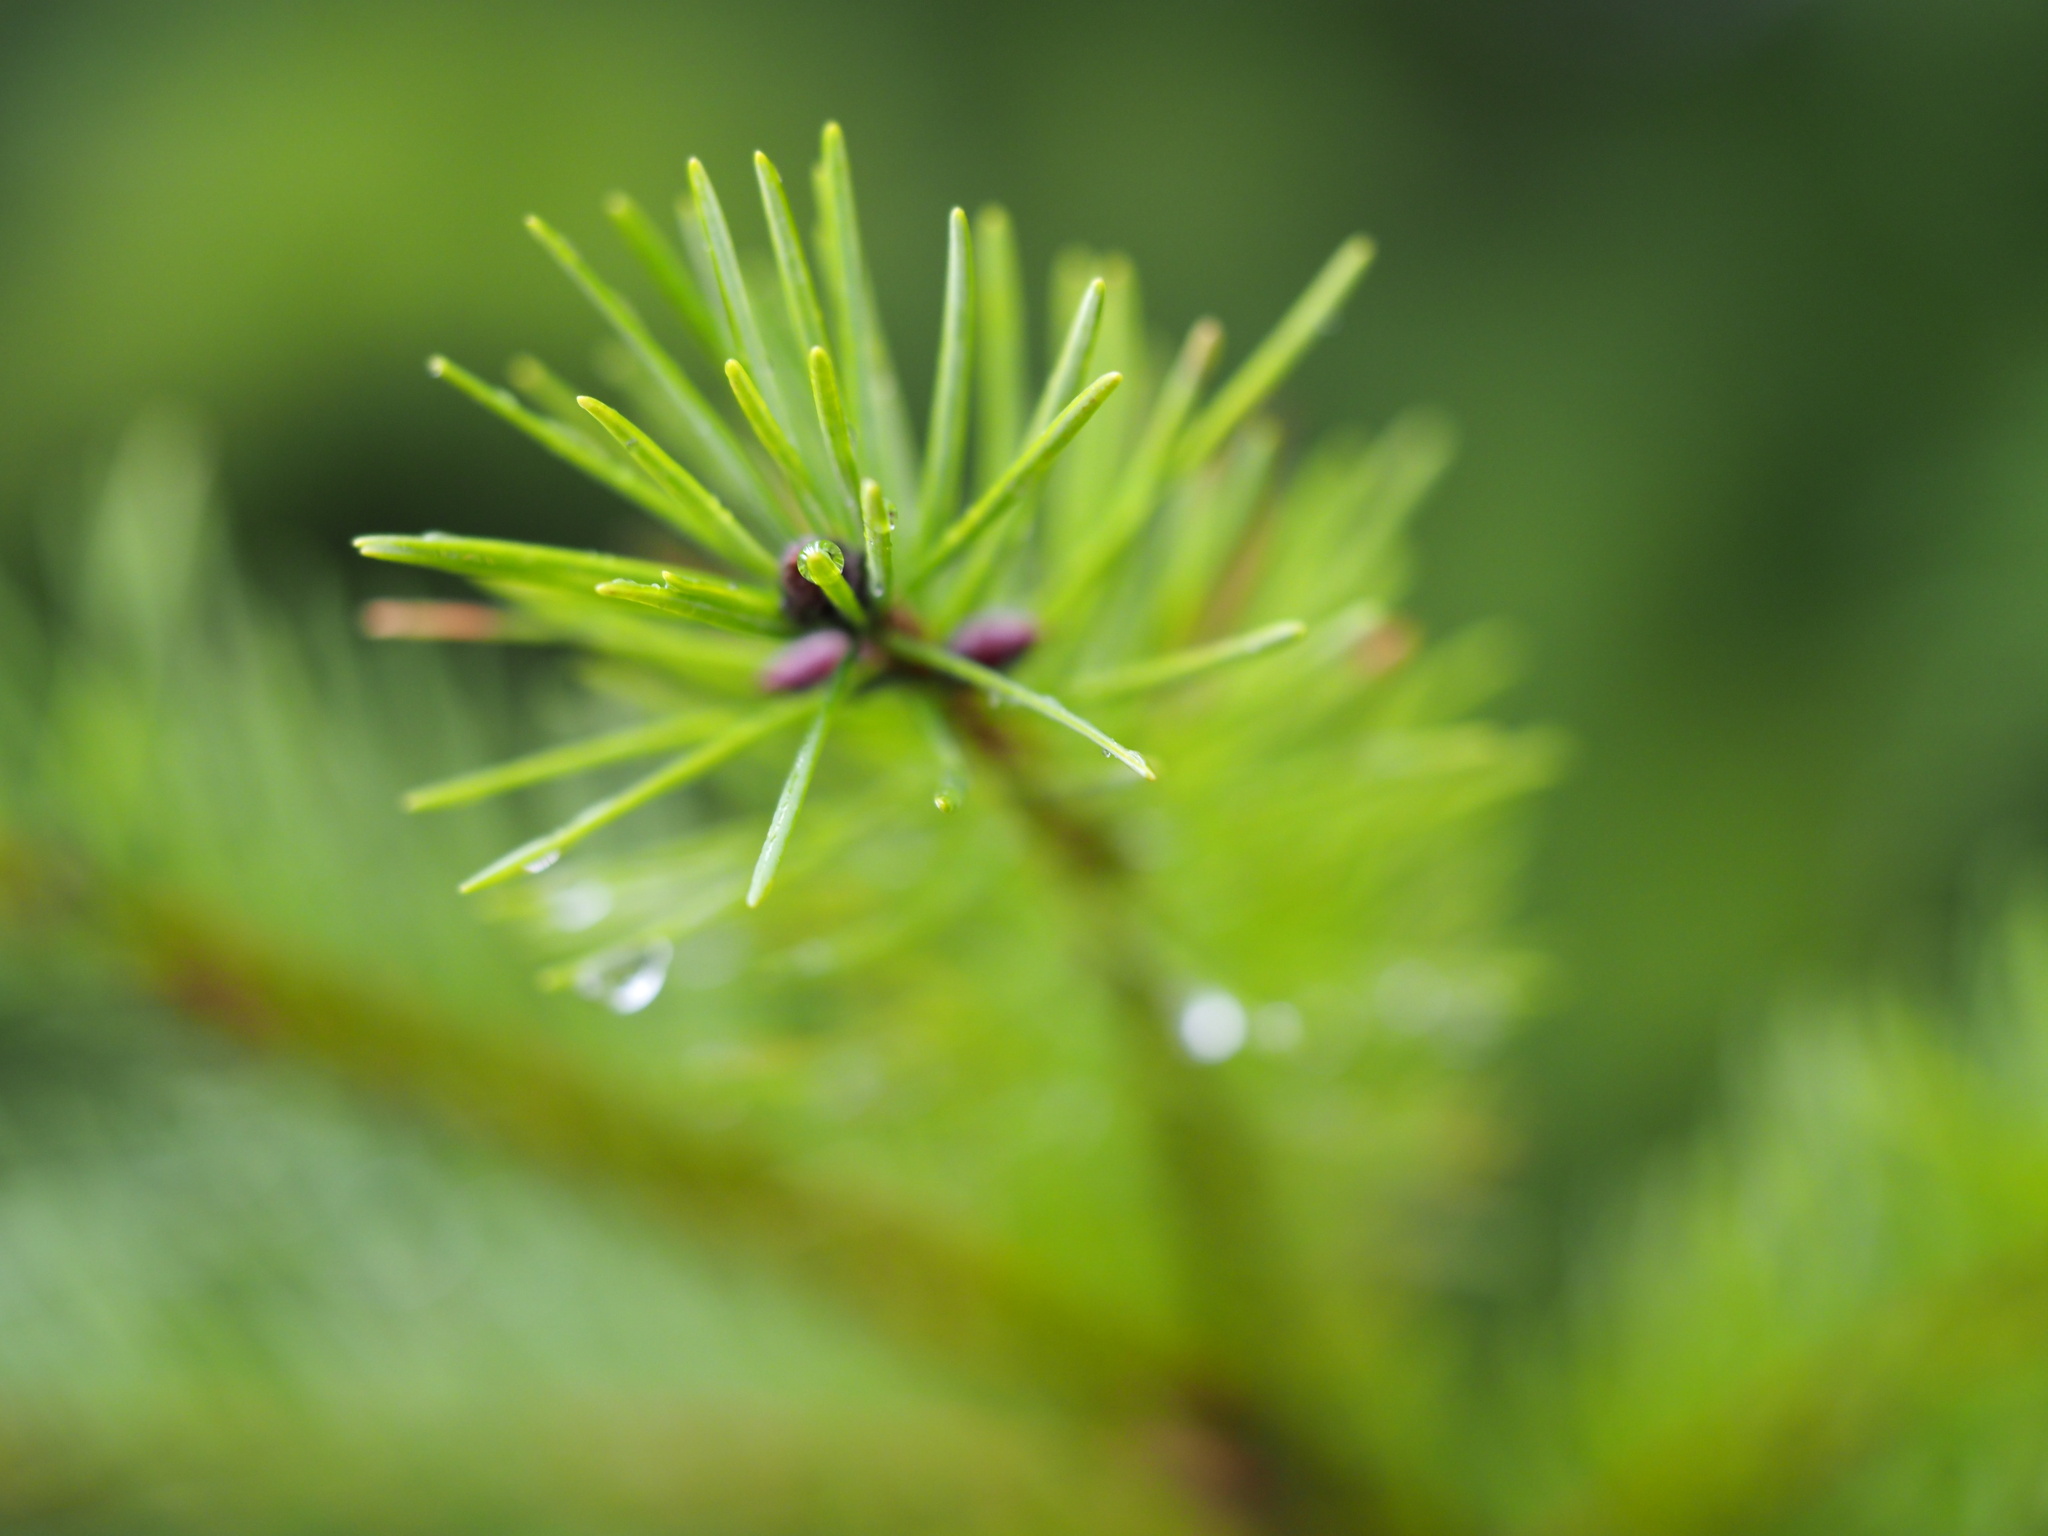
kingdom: Plantae
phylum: Tracheophyta
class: Pinopsida
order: Pinales
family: Pinaceae
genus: Pseudotsuga
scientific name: Pseudotsuga menziesii
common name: Douglas fir
